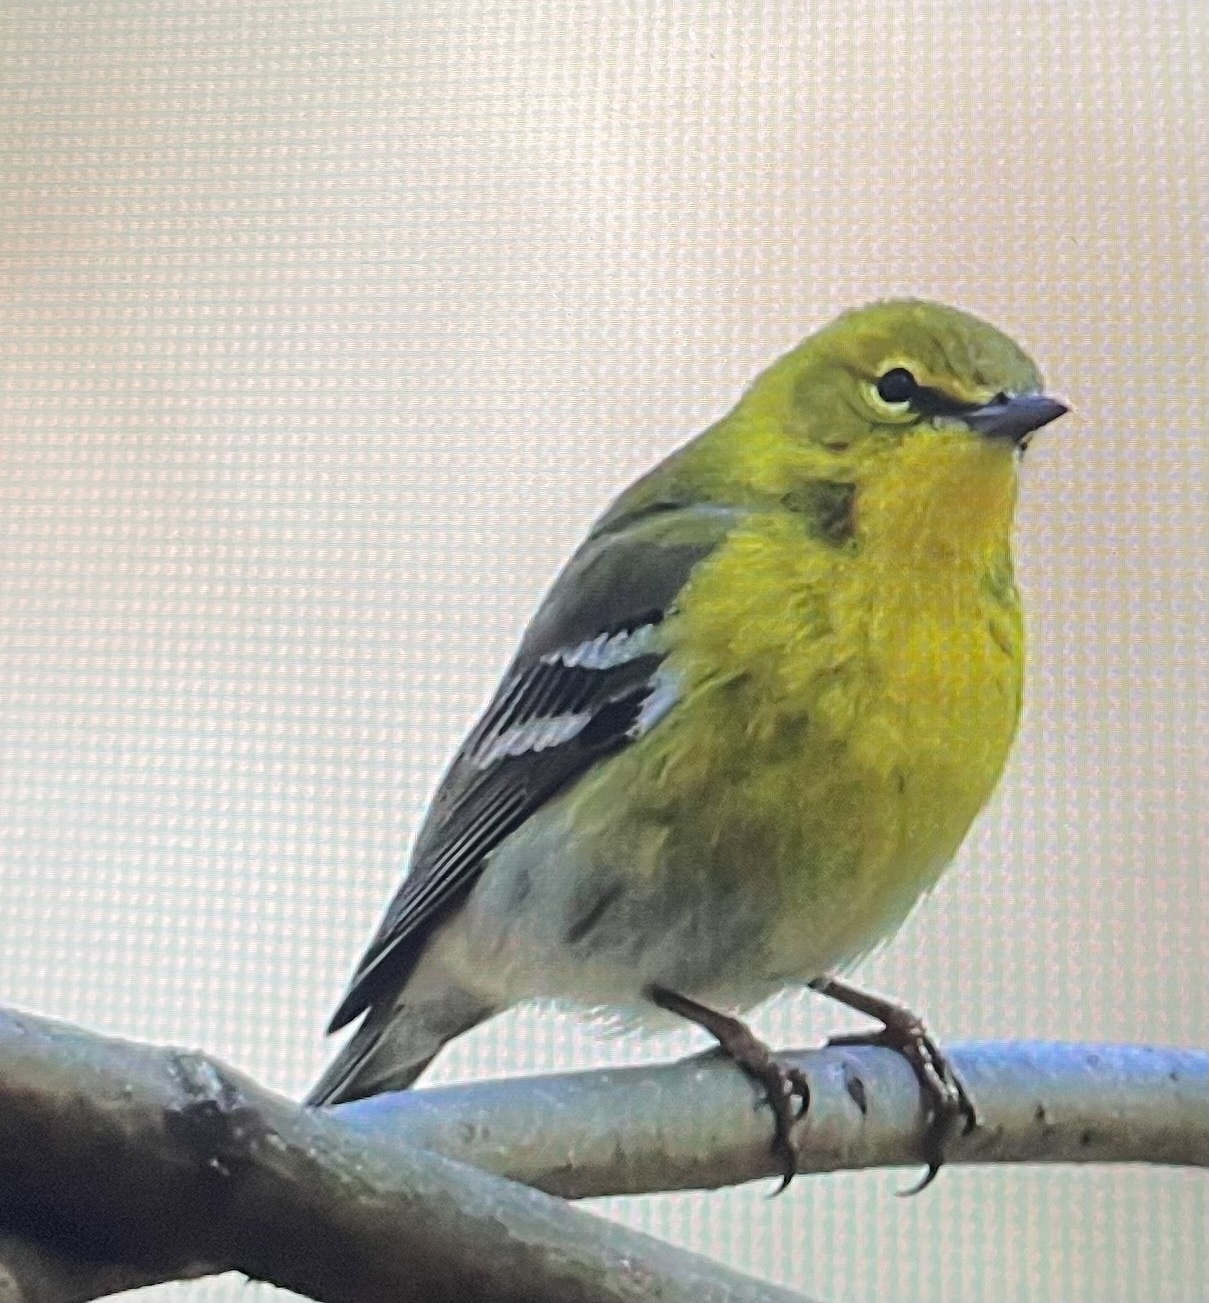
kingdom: Animalia
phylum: Chordata
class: Aves
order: Passeriformes
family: Parulidae
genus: Setophaga
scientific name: Setophaga pinus
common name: Pine warbler
